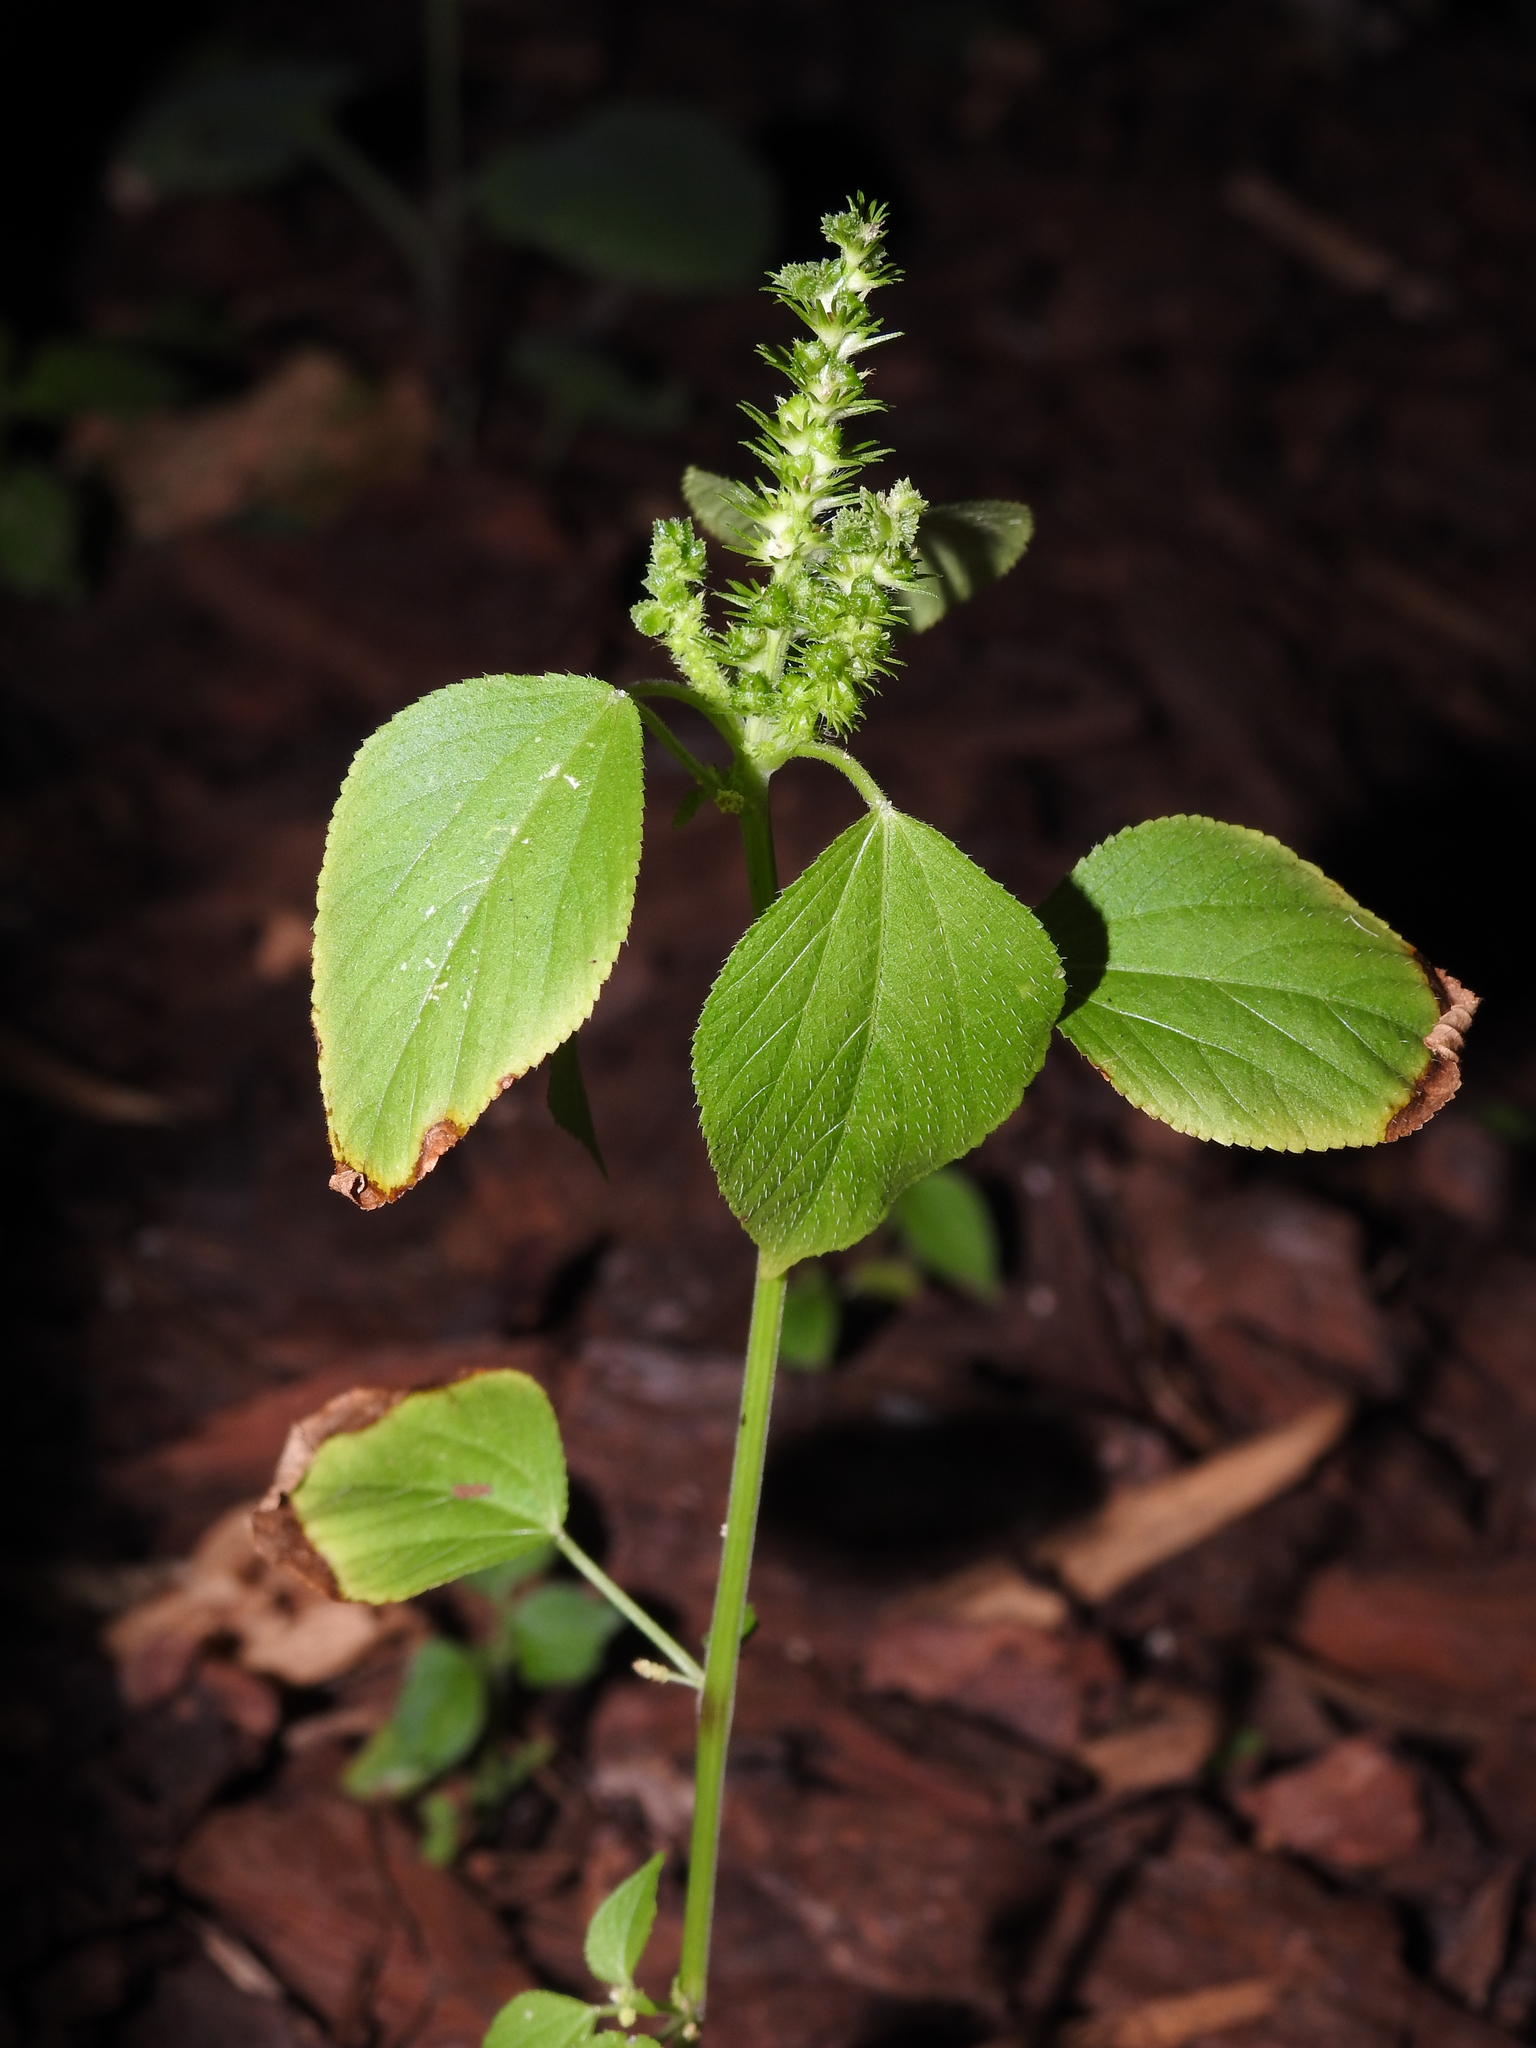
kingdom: Plantae
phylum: Tracheophyta
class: Magnoliopsida
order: Malpighiales
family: Euphorbiaceae
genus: Acalypha
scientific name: Acalypha setosa
